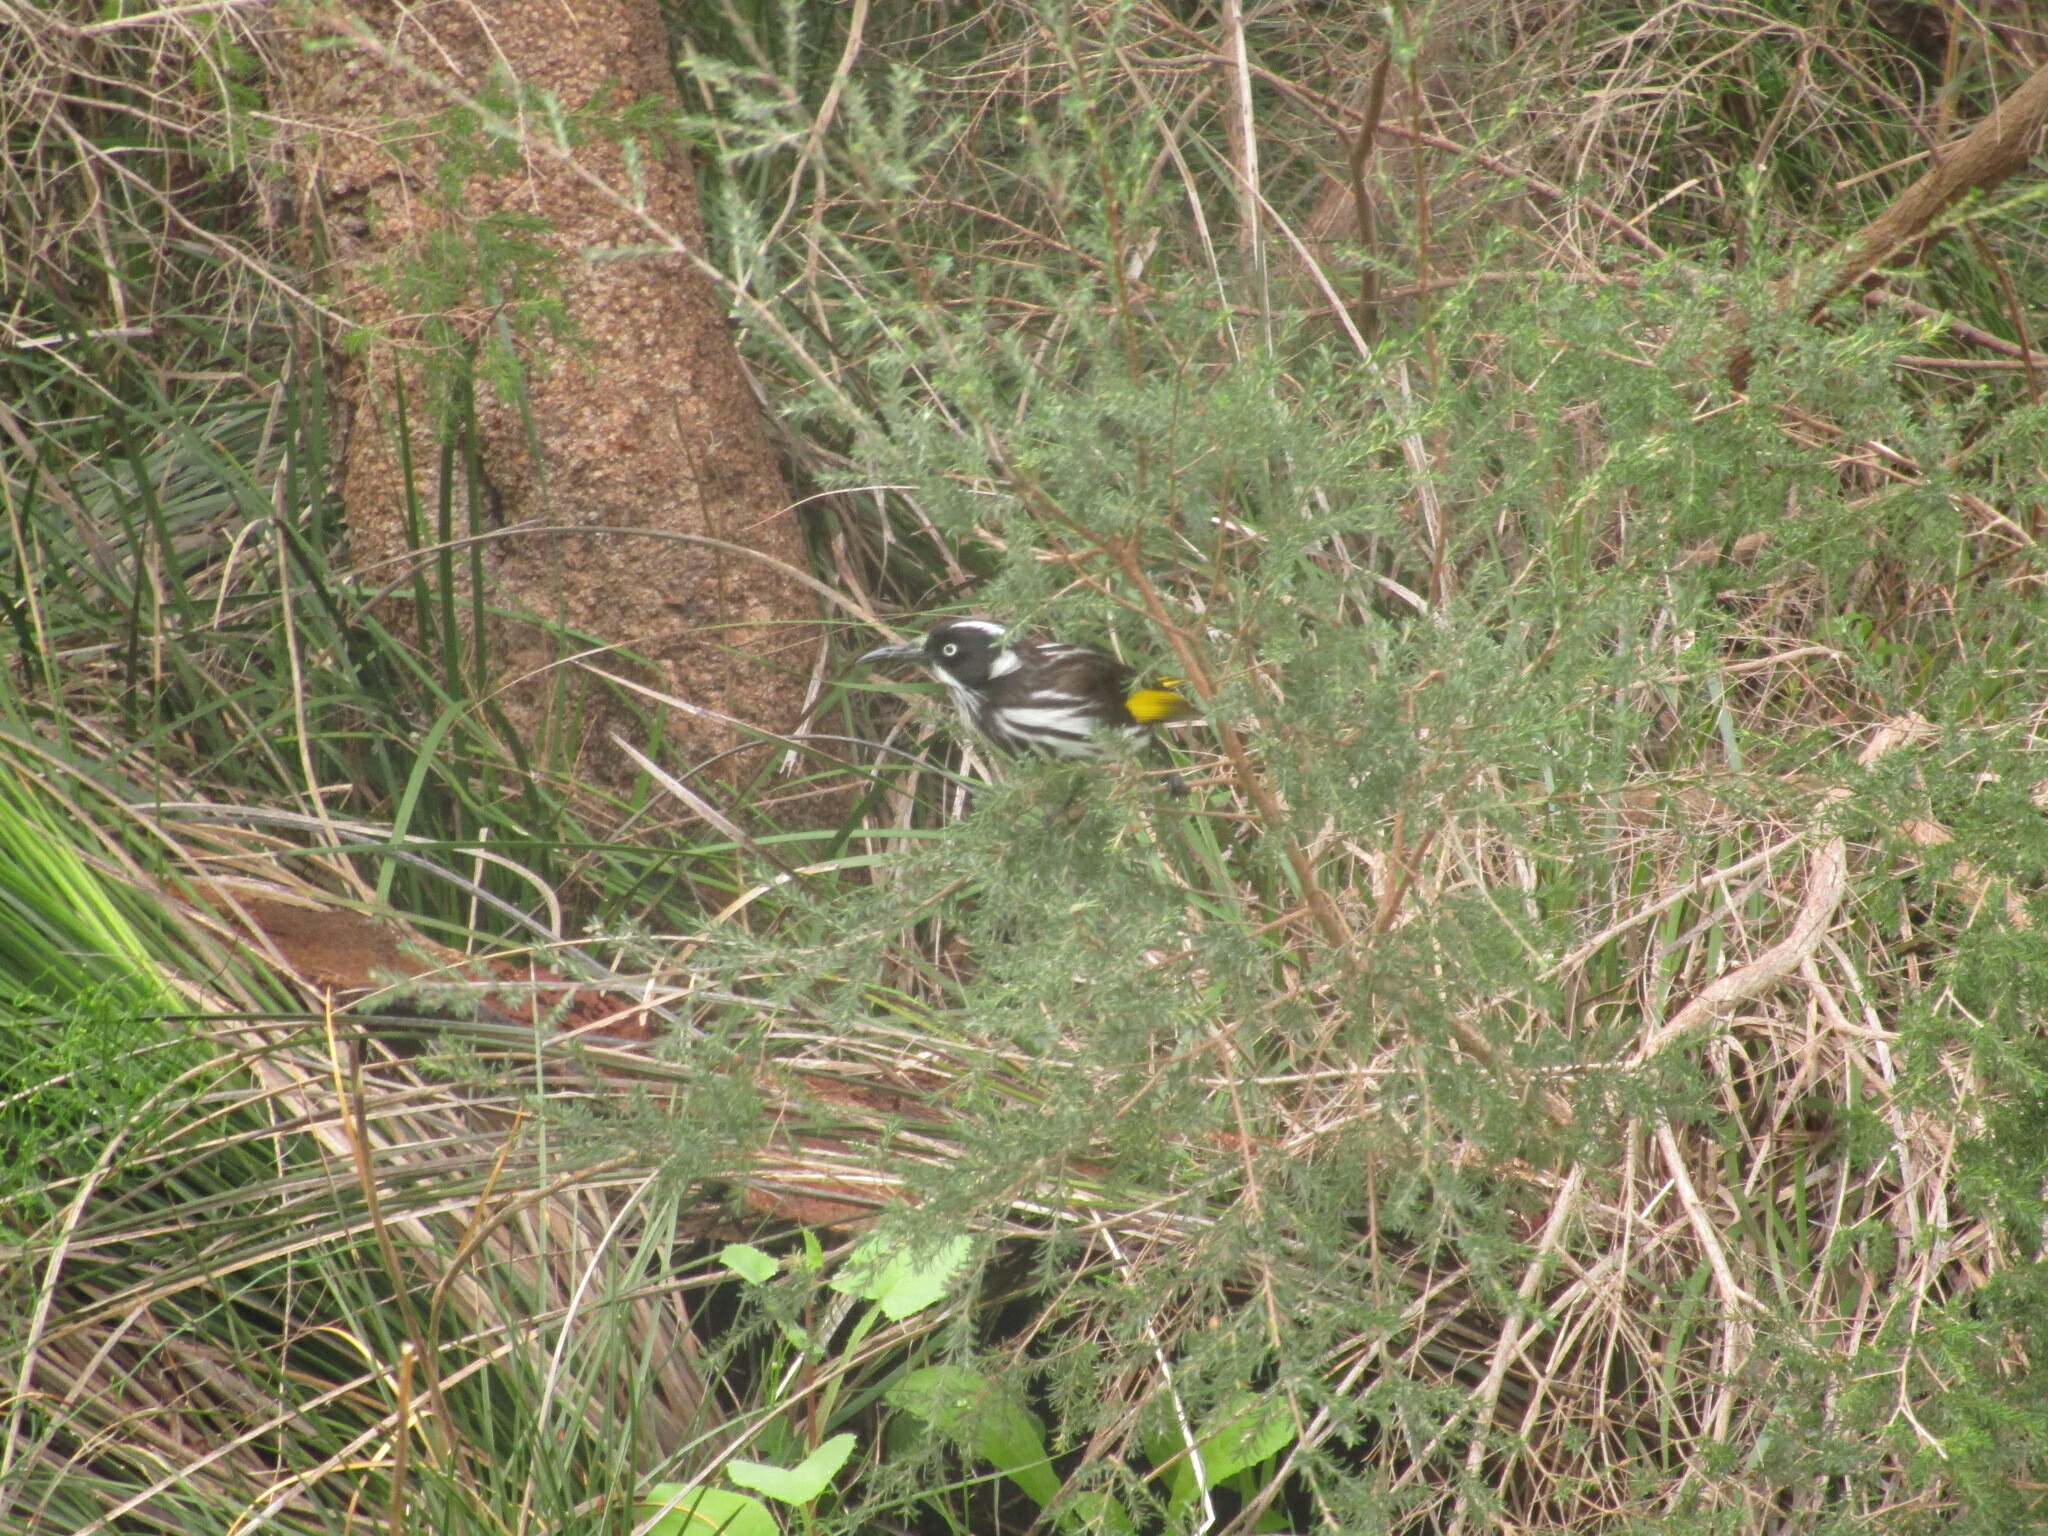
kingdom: Animalia
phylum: Chordata
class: Aves
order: Passeriformes
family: Meliphagidae
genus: Phylidonyris
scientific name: Phylidonyris novaehollandiae
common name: New holland honeyeater
